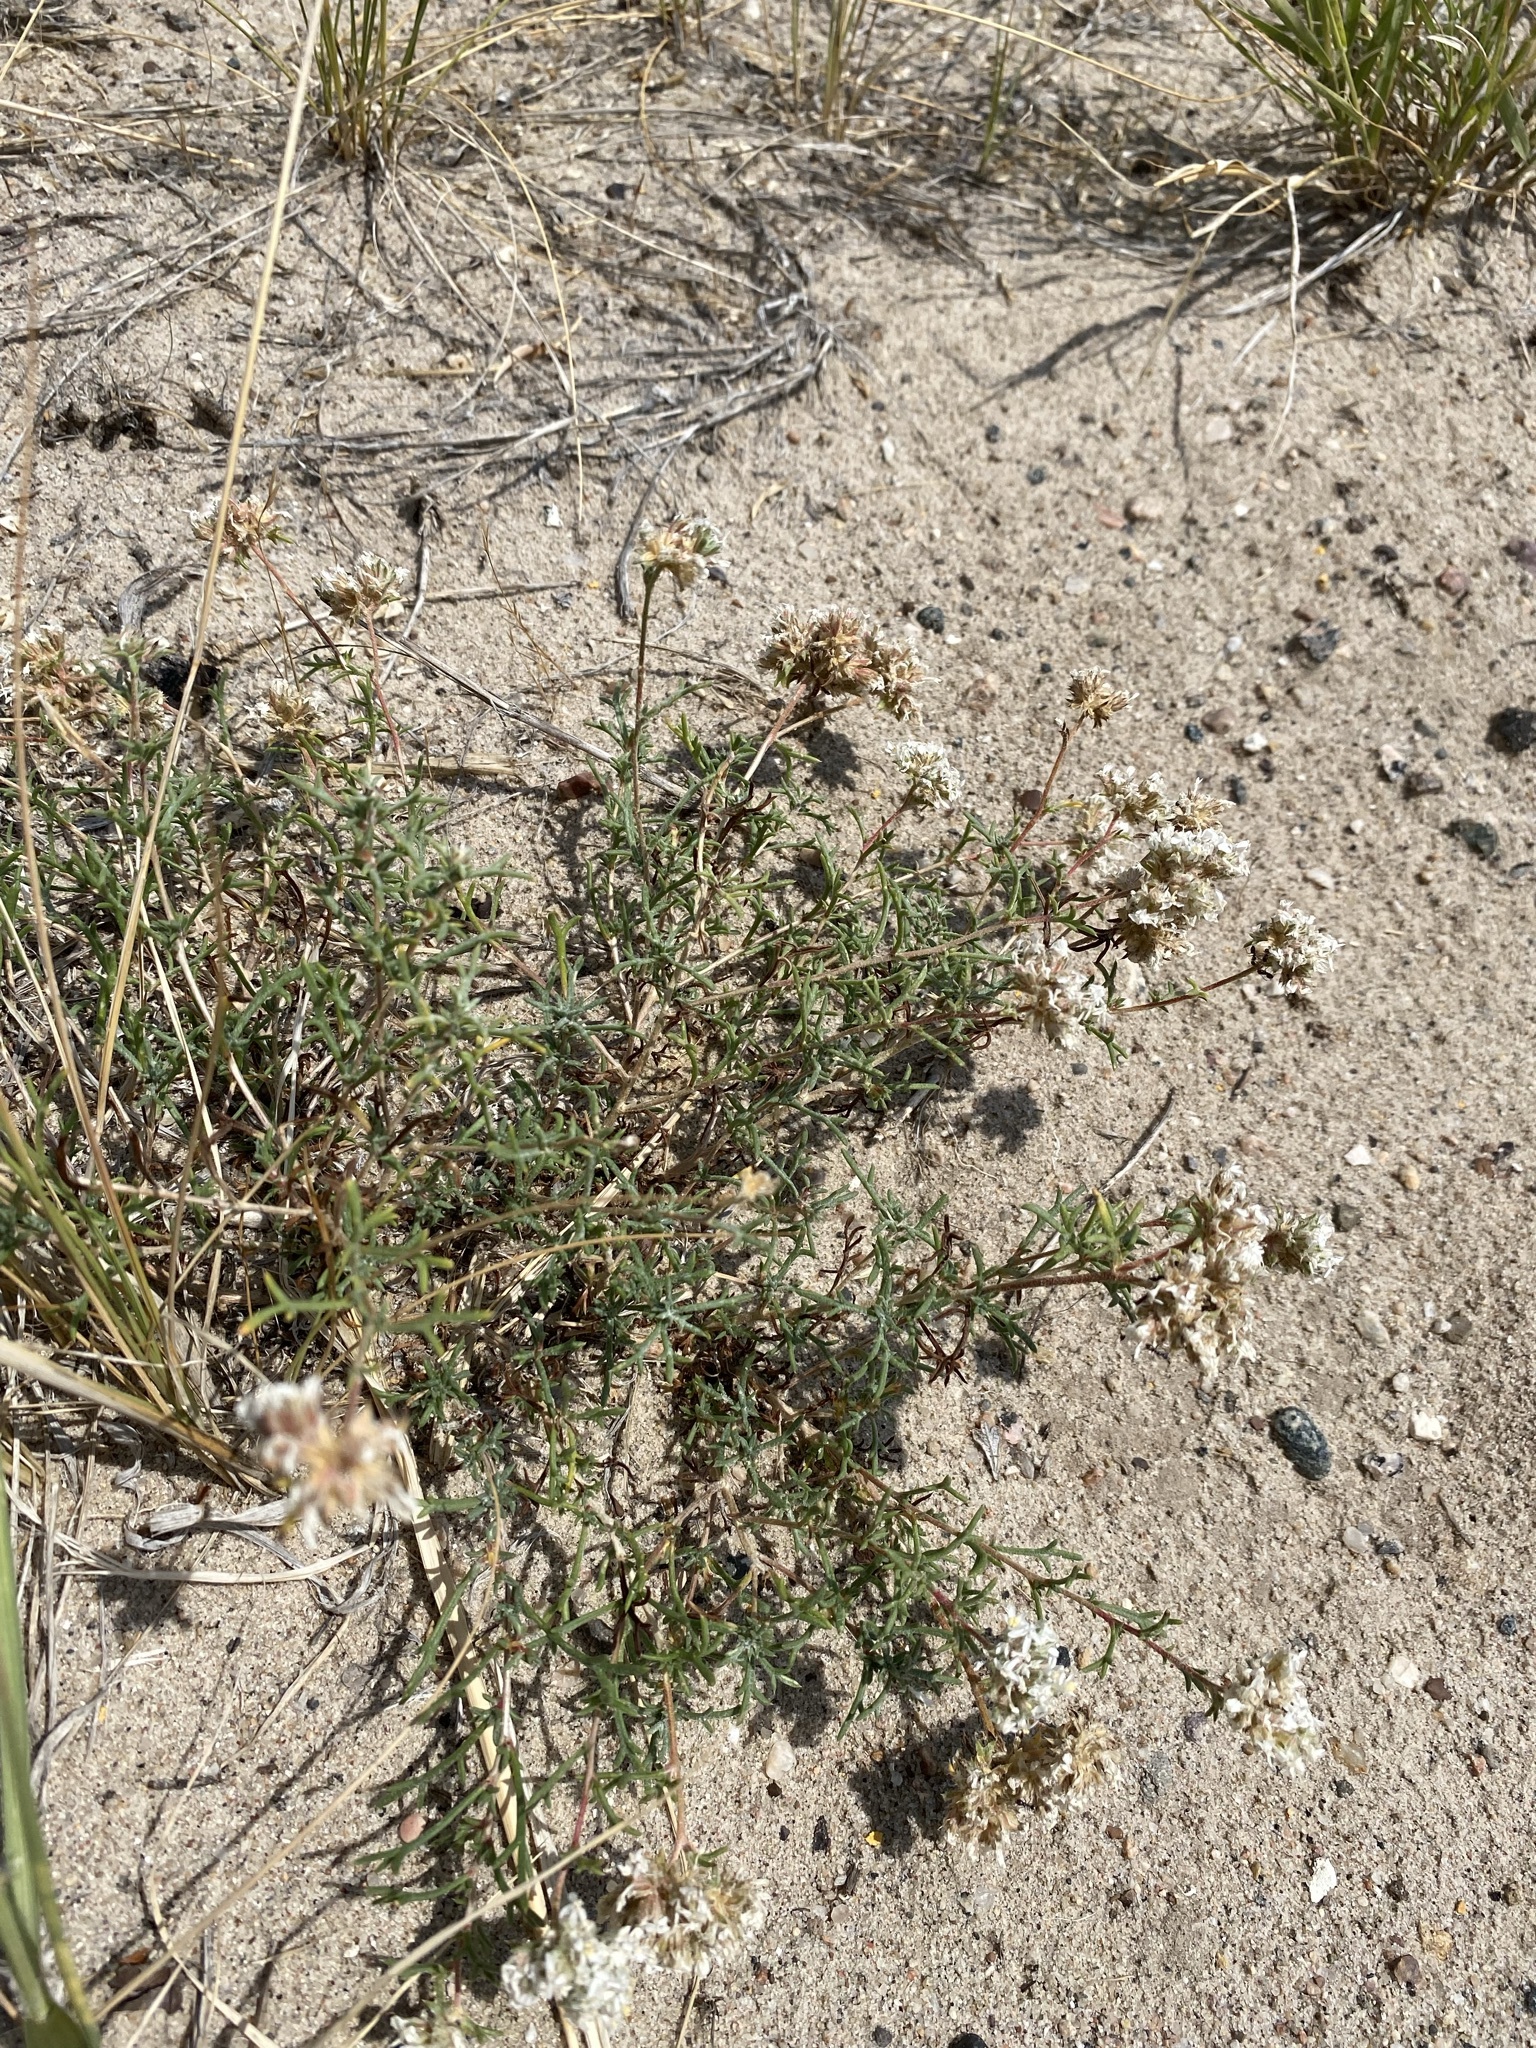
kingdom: Plantae
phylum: Tracheophyta
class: Magnoliopsida
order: Ericales
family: Polemoniaceae
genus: Ipomopsis
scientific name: Ipomopsis congesta
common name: Ball-head gilia
